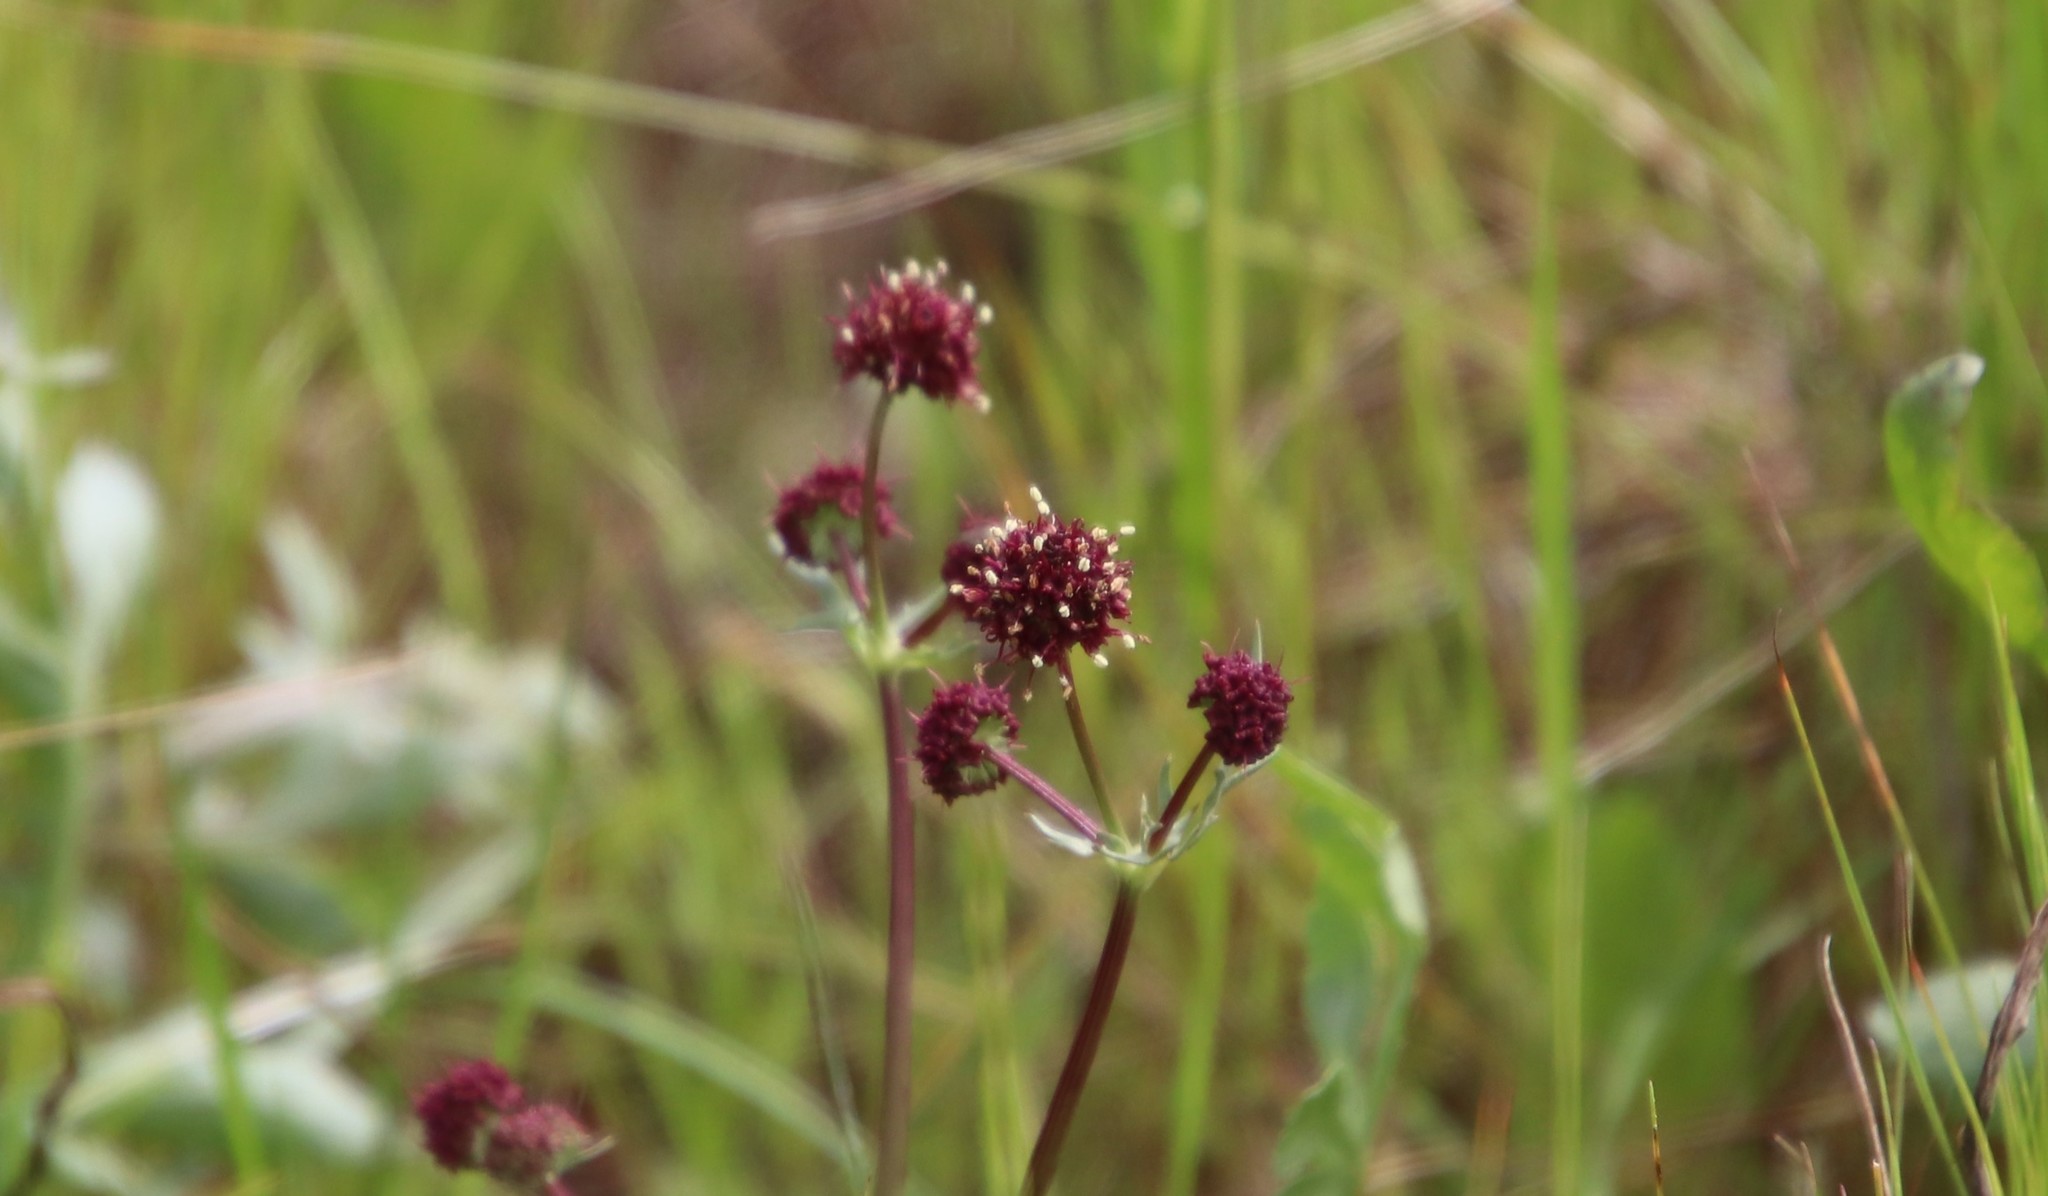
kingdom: Plantae
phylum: Tracheophyta
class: Magnoliopsida
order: Apiales
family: Apiaceae
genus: Sanicula
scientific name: Sanicula bipinnatifida
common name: Shoe-buttons
